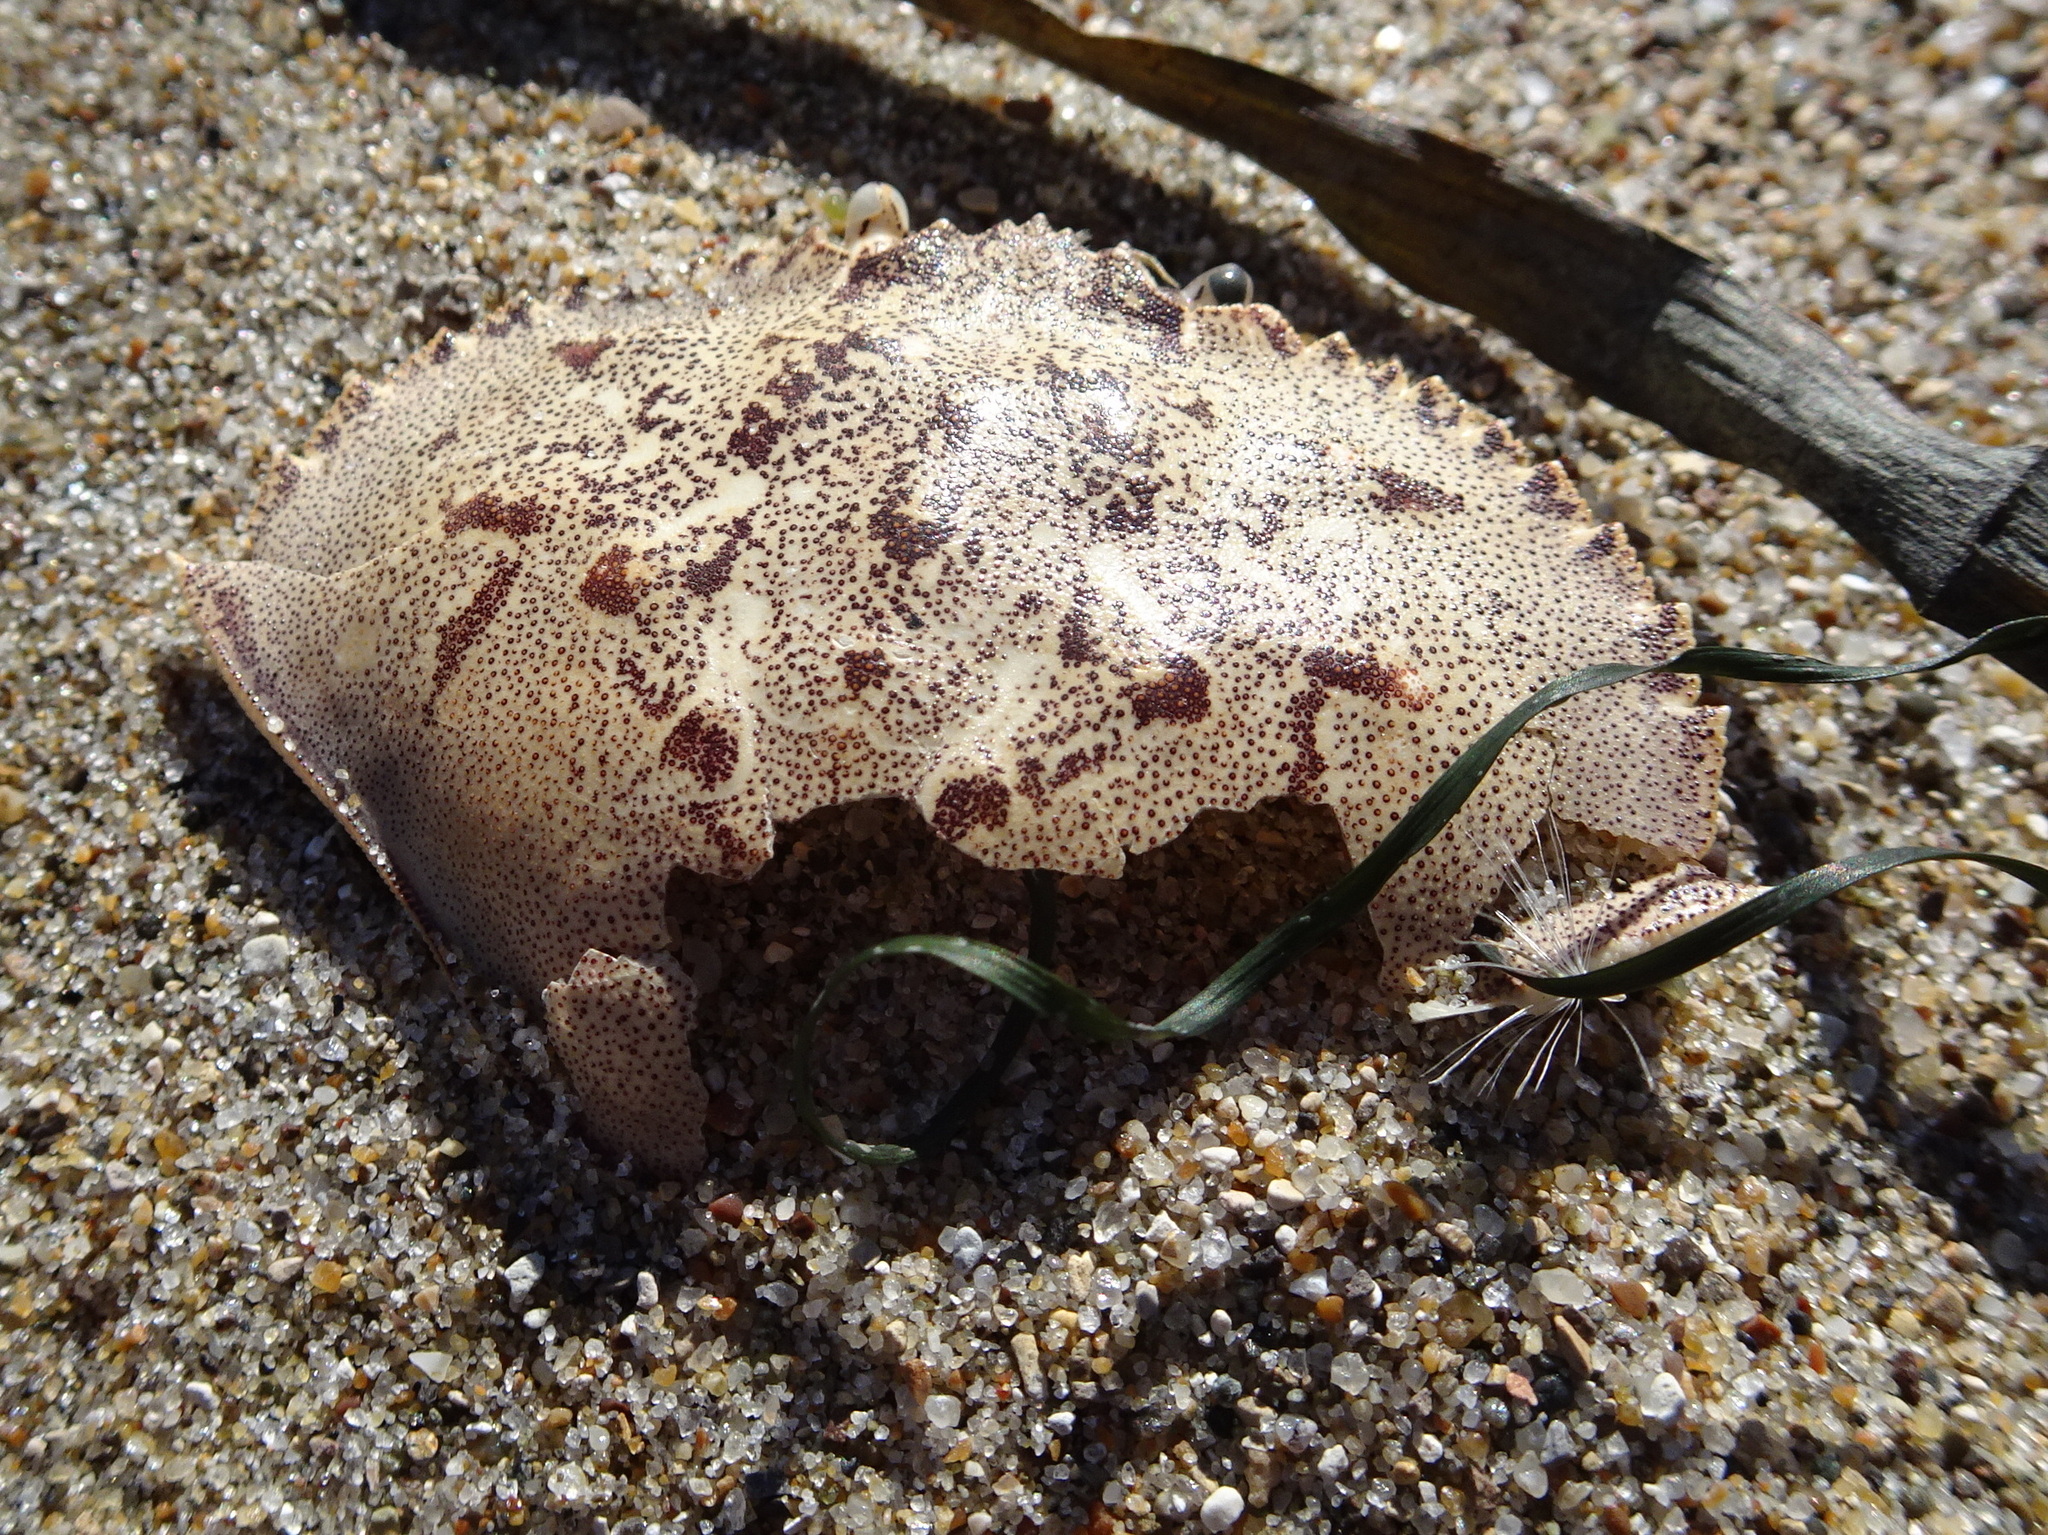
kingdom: Animalia
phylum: Arthropoda
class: Malacostraca
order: Decapoda
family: Cancridae
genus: Metacarcinus
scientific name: Metacarcinus magister
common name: Californian crab
